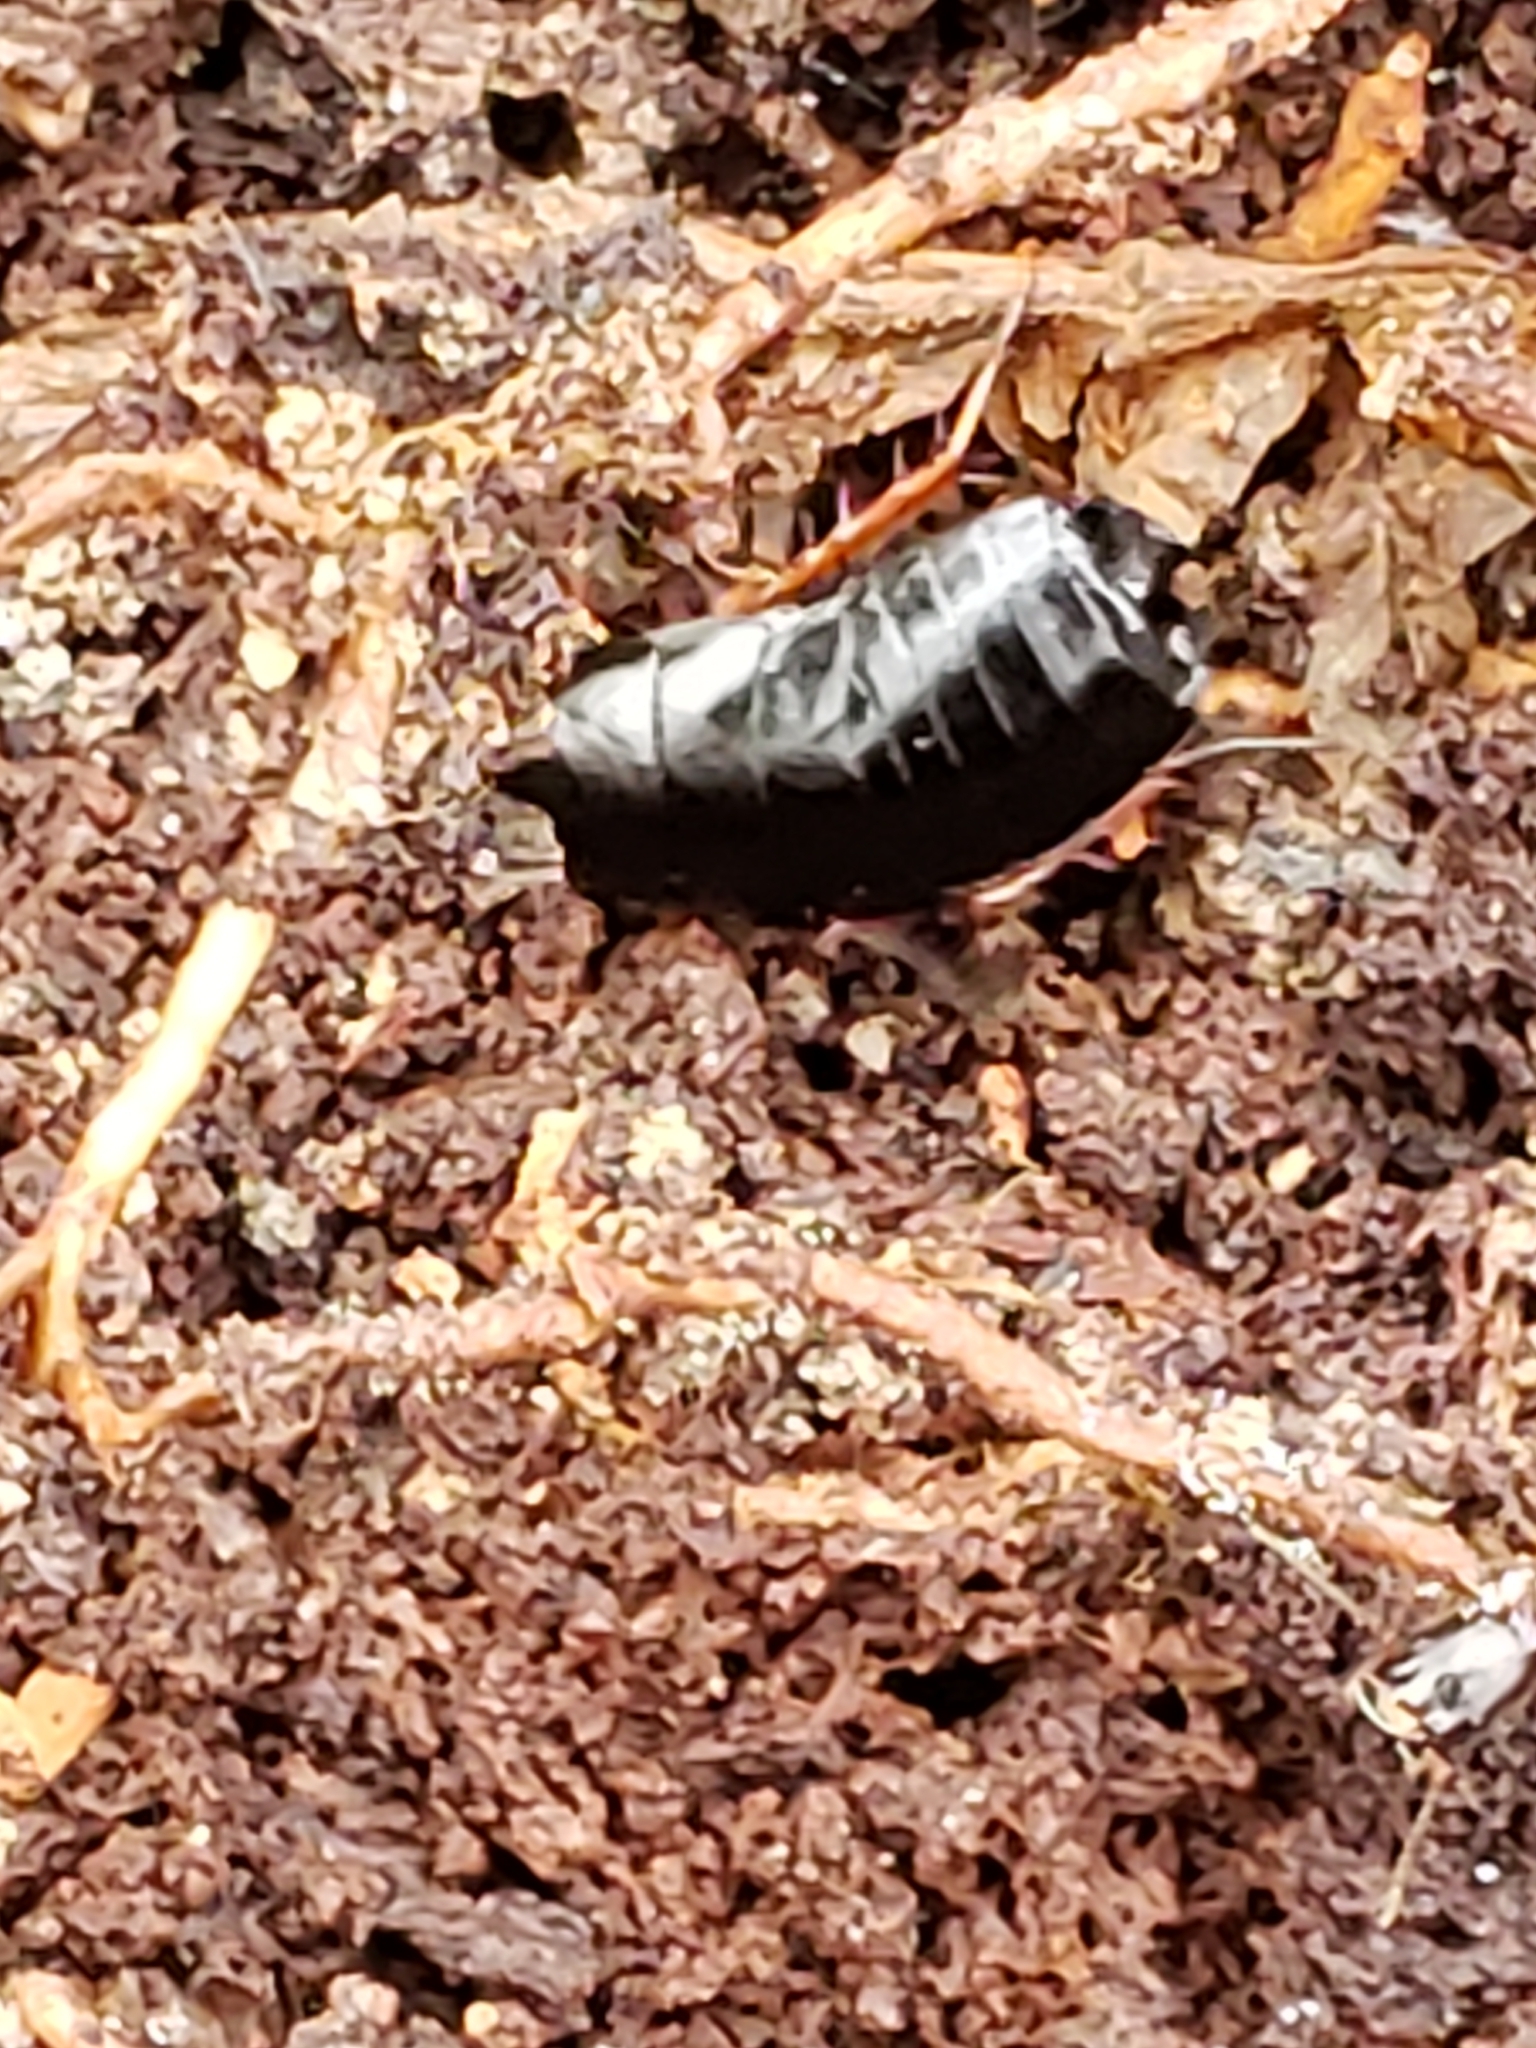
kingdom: Animalia
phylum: Arthropoda
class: Insecta
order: Blattodea
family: Ectobiidae
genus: Ischnoptera
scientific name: Ischnoptera deropeltiformis
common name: Dark wood cockroach
